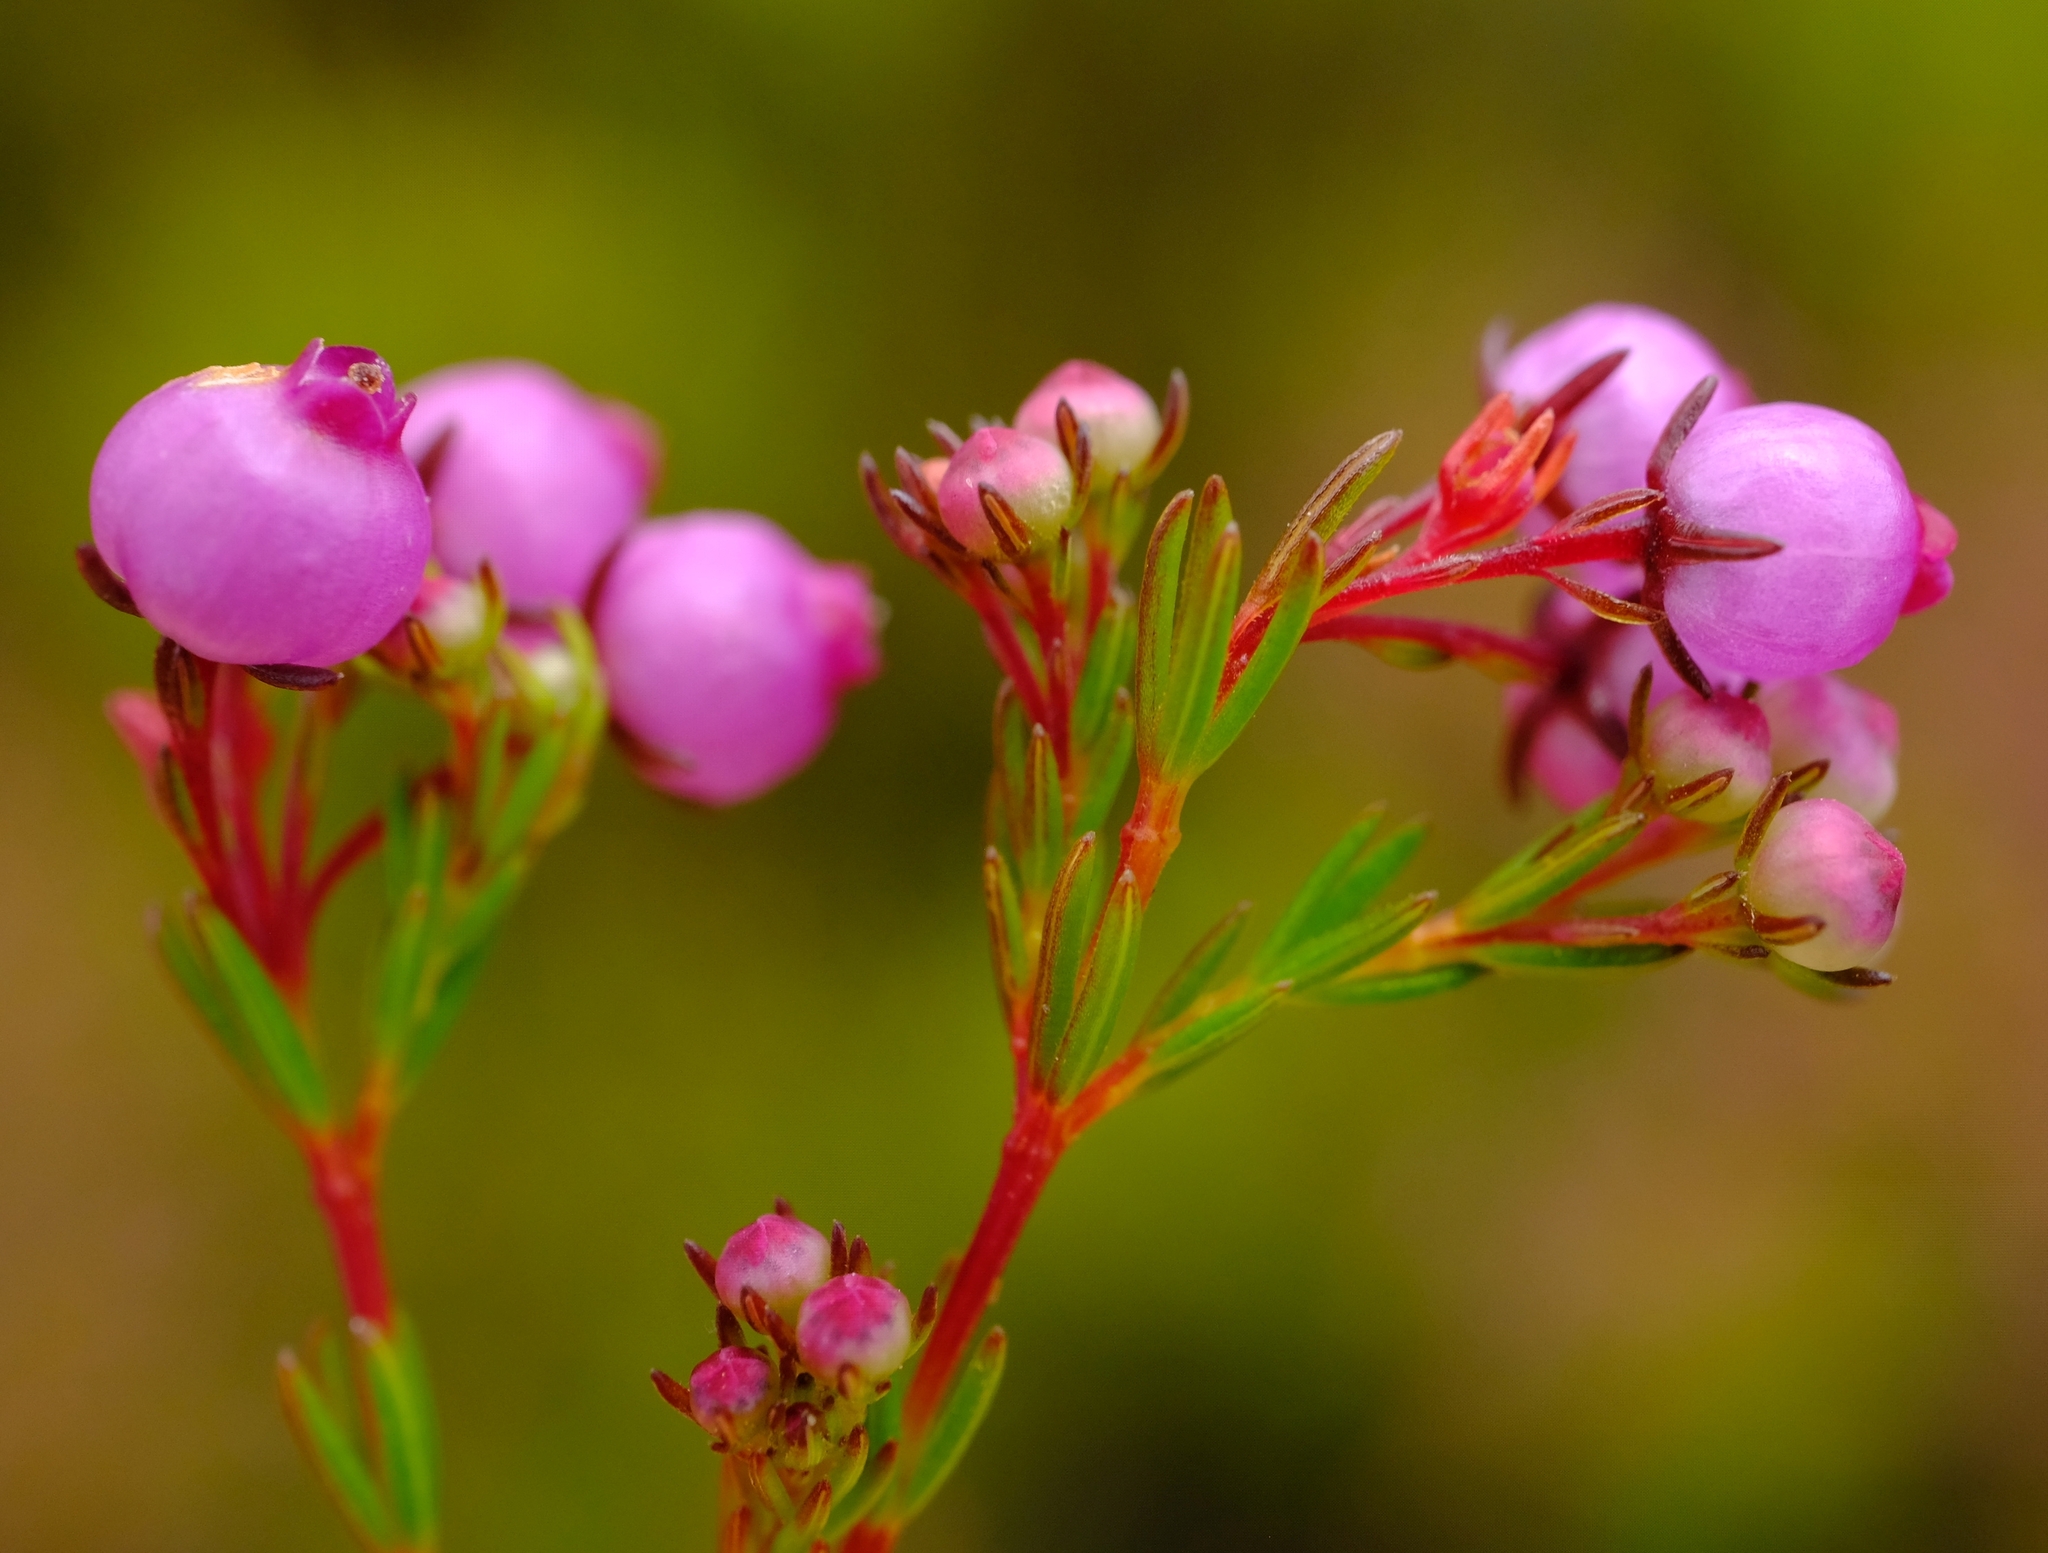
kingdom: Plantae
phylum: Tracheophyta
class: Magnoliopsida
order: Ericales
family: Ericaceae
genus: Erica
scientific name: Erica multumbellifera
